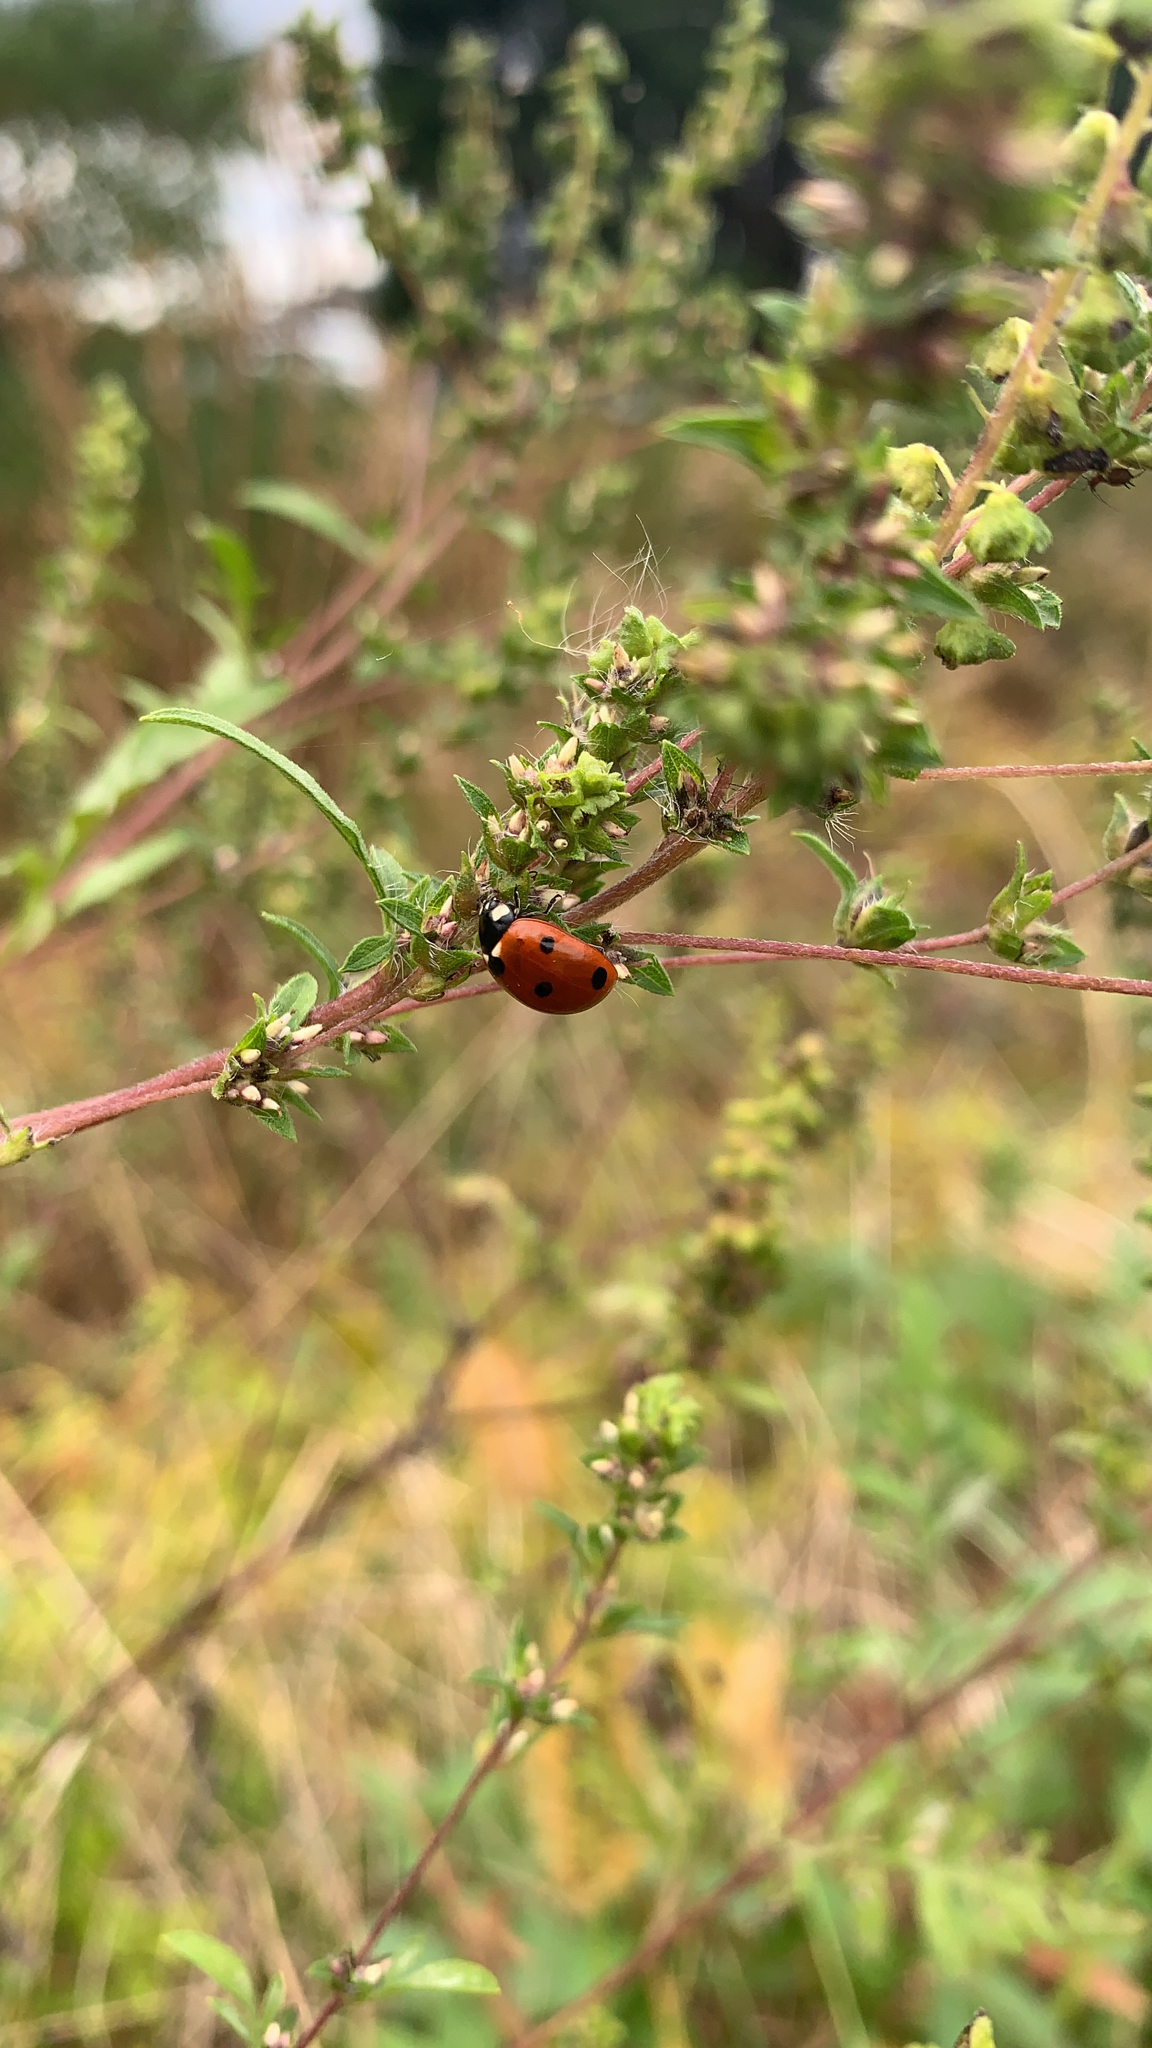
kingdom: Animalia
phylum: Arthropoda
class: Insecta
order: Coleoptera
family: Coccinellidae
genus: Coccinella
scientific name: Coccinella septempunctata
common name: Sevenspotted lady beetle
